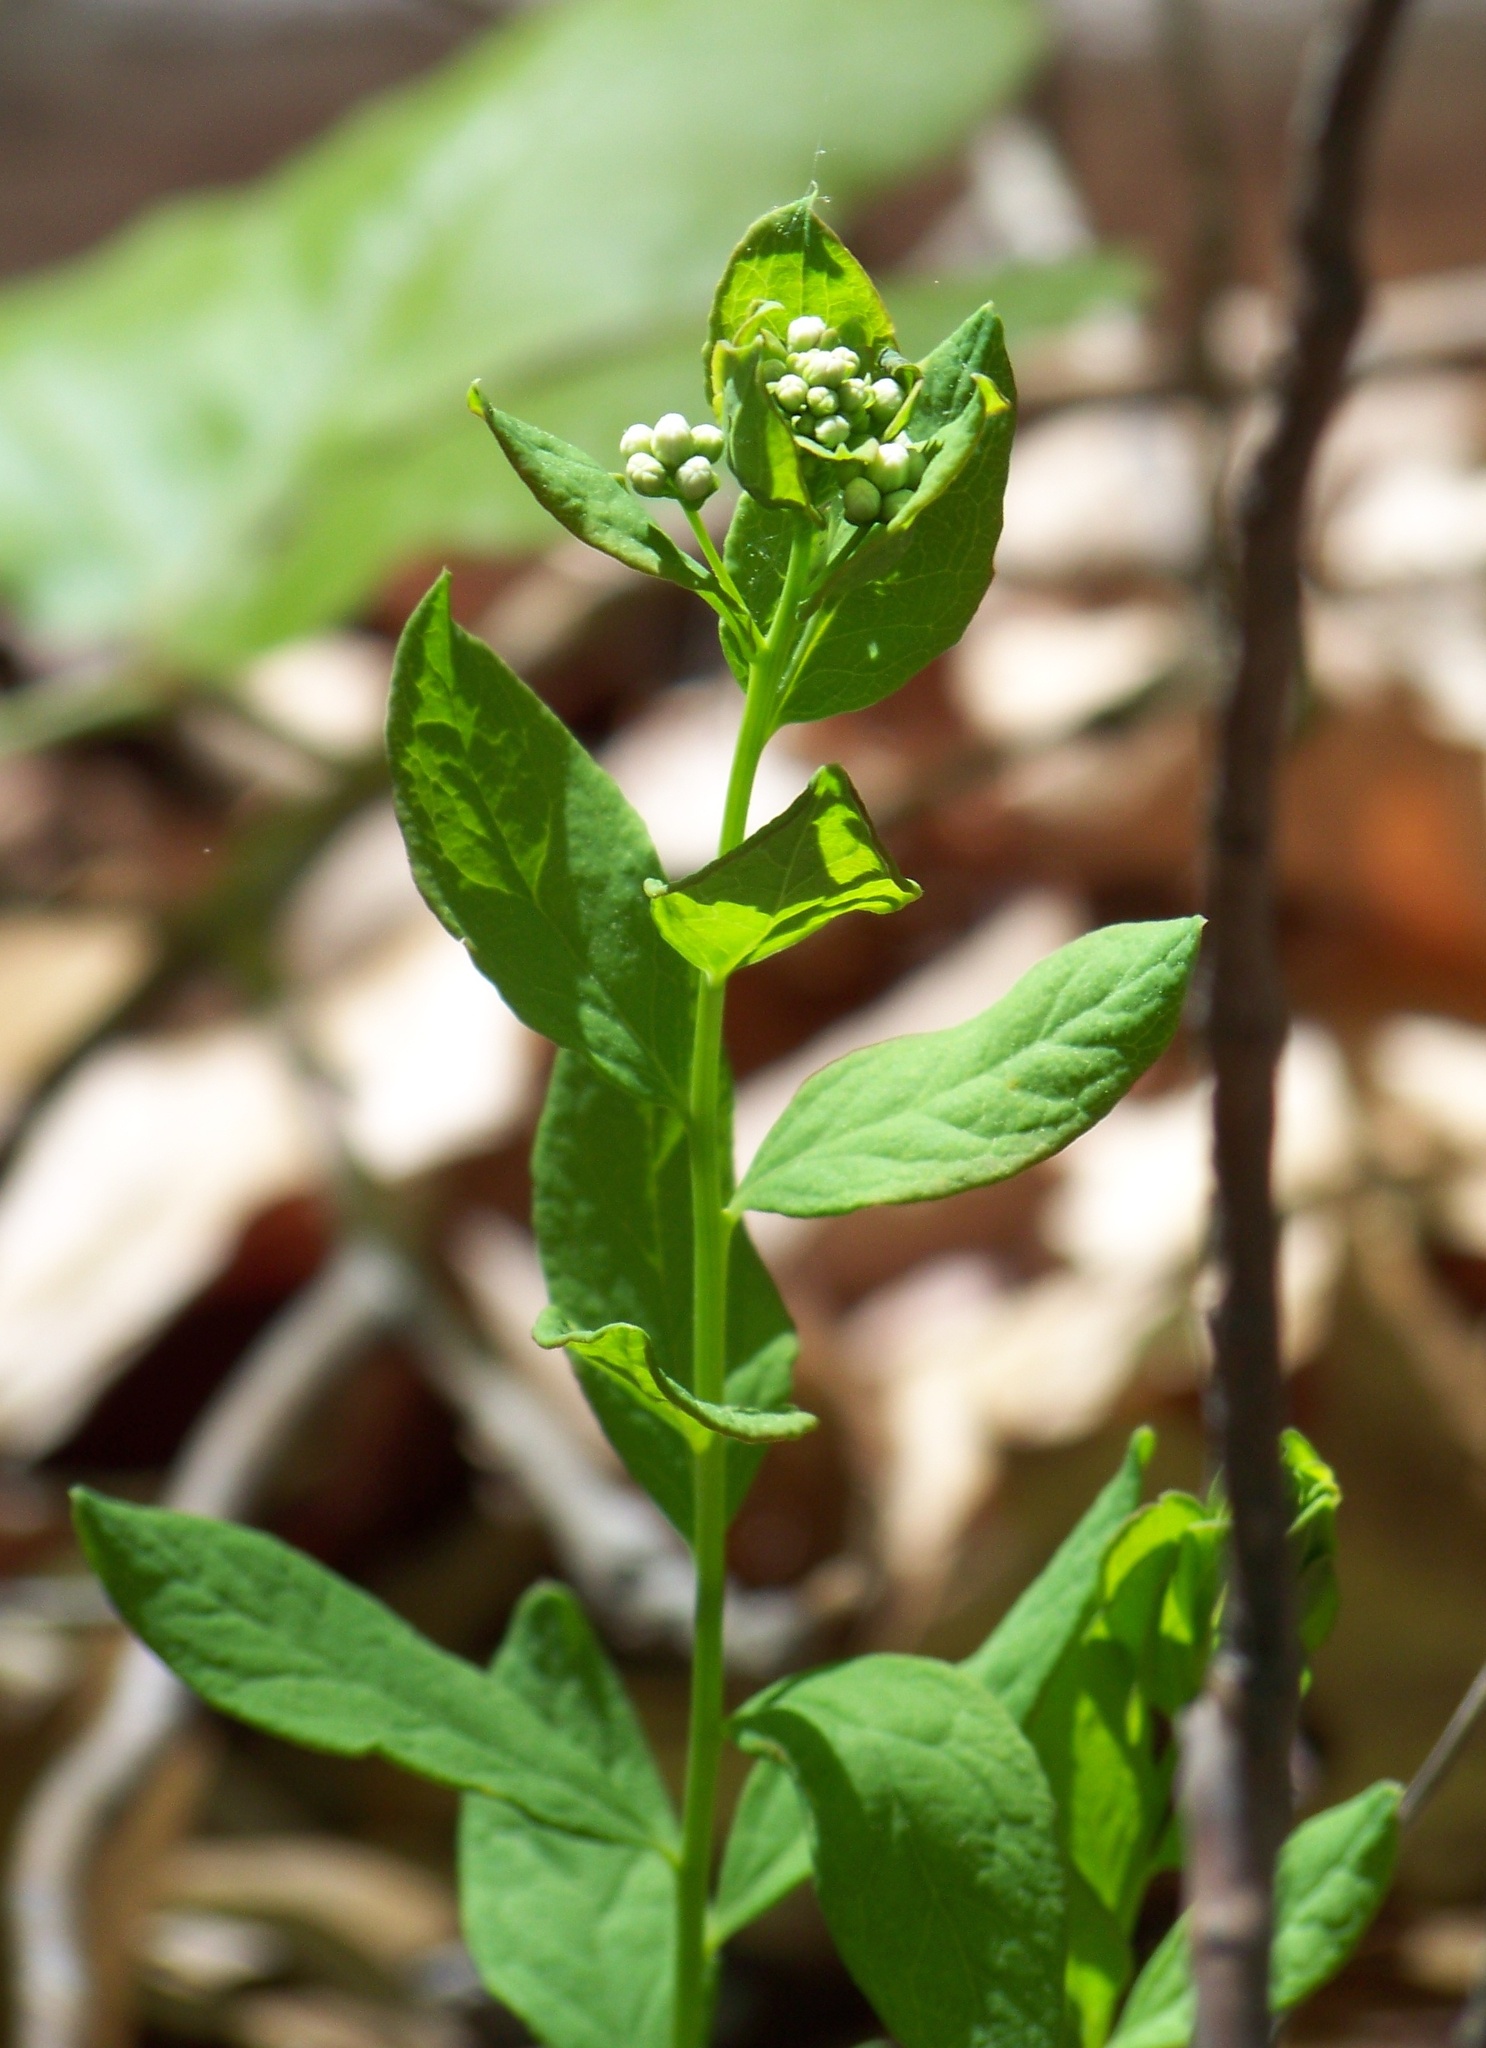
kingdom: Plantae
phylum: Tracheophyta
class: Magnoliopsida
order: Santalales
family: Comandraceae
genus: Comandra
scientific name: Comandra umbellata
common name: Bastard toadflax
